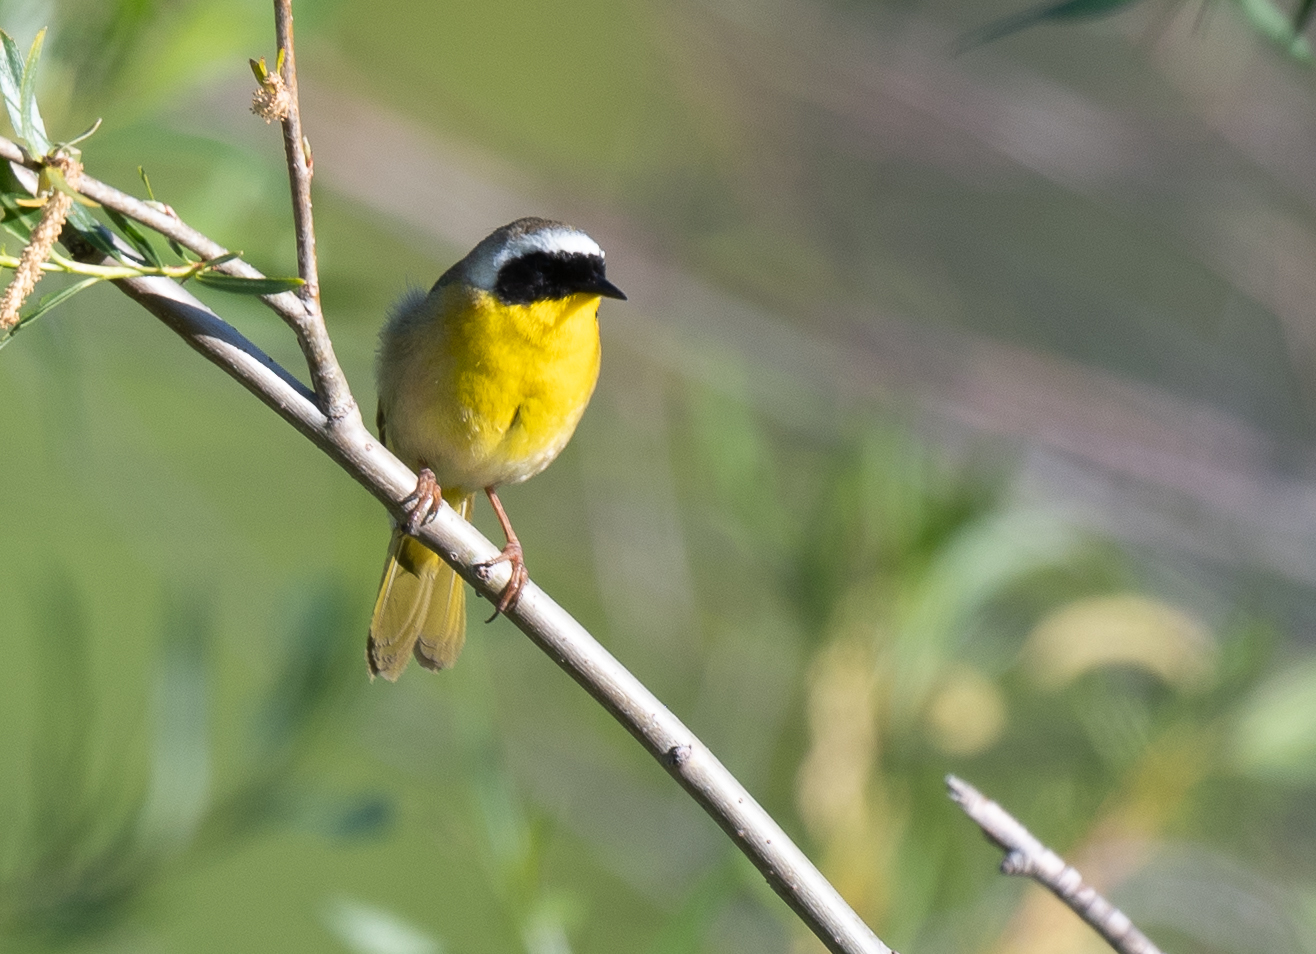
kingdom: Animalia
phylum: Chordata
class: Aves
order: Passeriformes
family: Parulidae
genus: Geothlypis
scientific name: Geothlypis trichas
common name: Common yellowthroat
